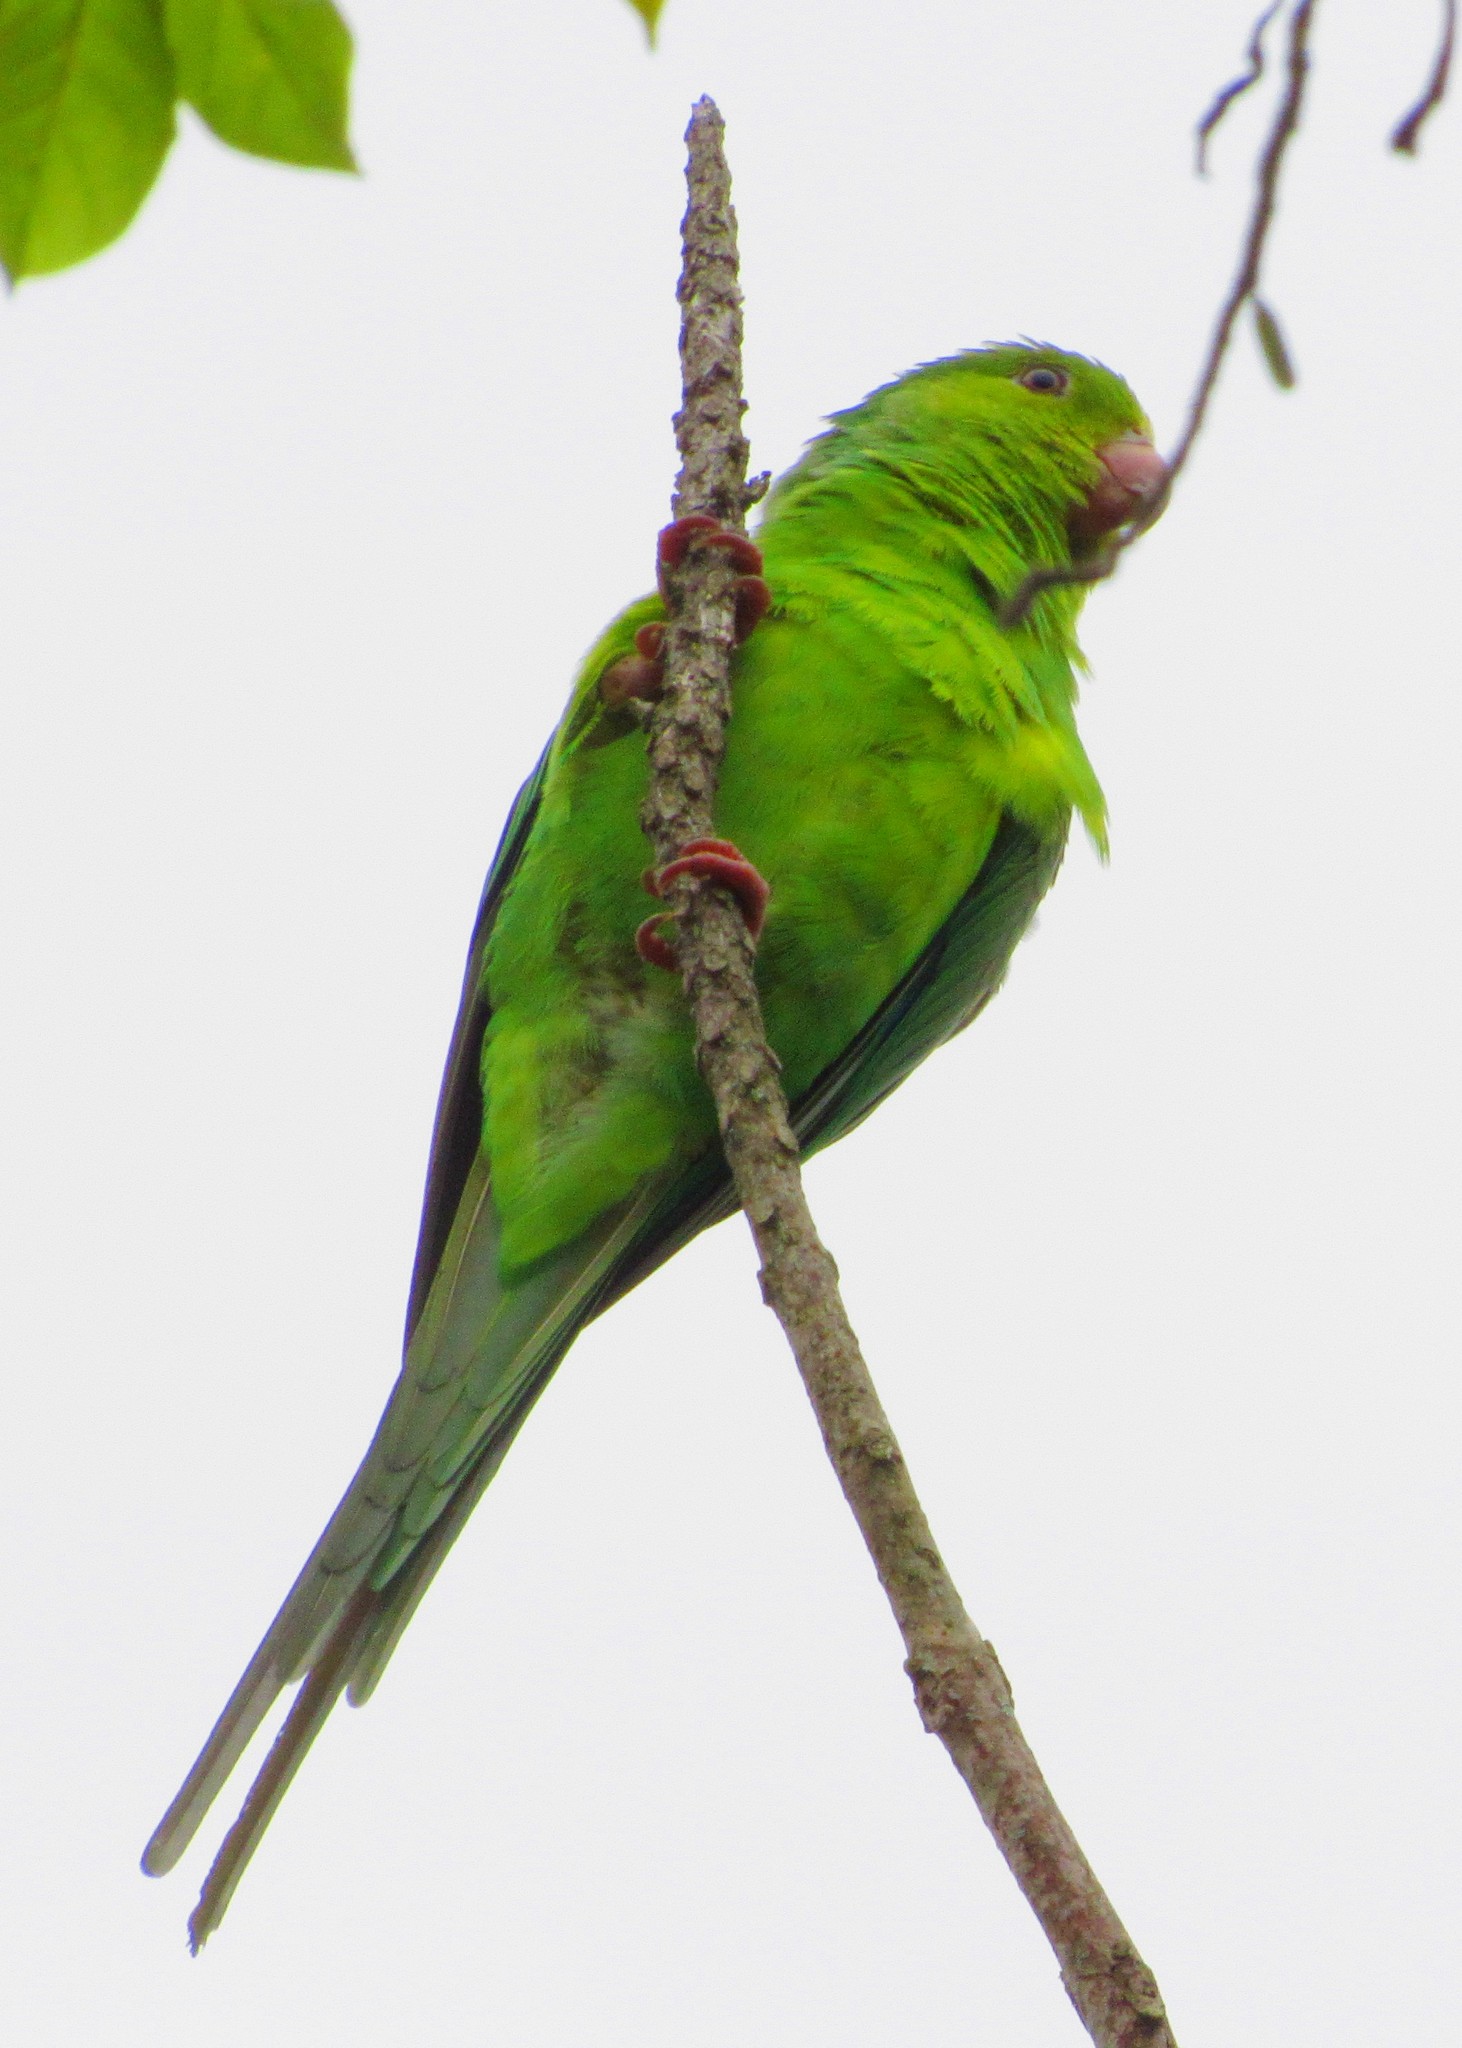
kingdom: Animalia
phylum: Chordata
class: Aves
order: Psittaciformes
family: Psittacidae
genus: Brotogeris
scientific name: Brotogeris tirica
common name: Plain parakeet
